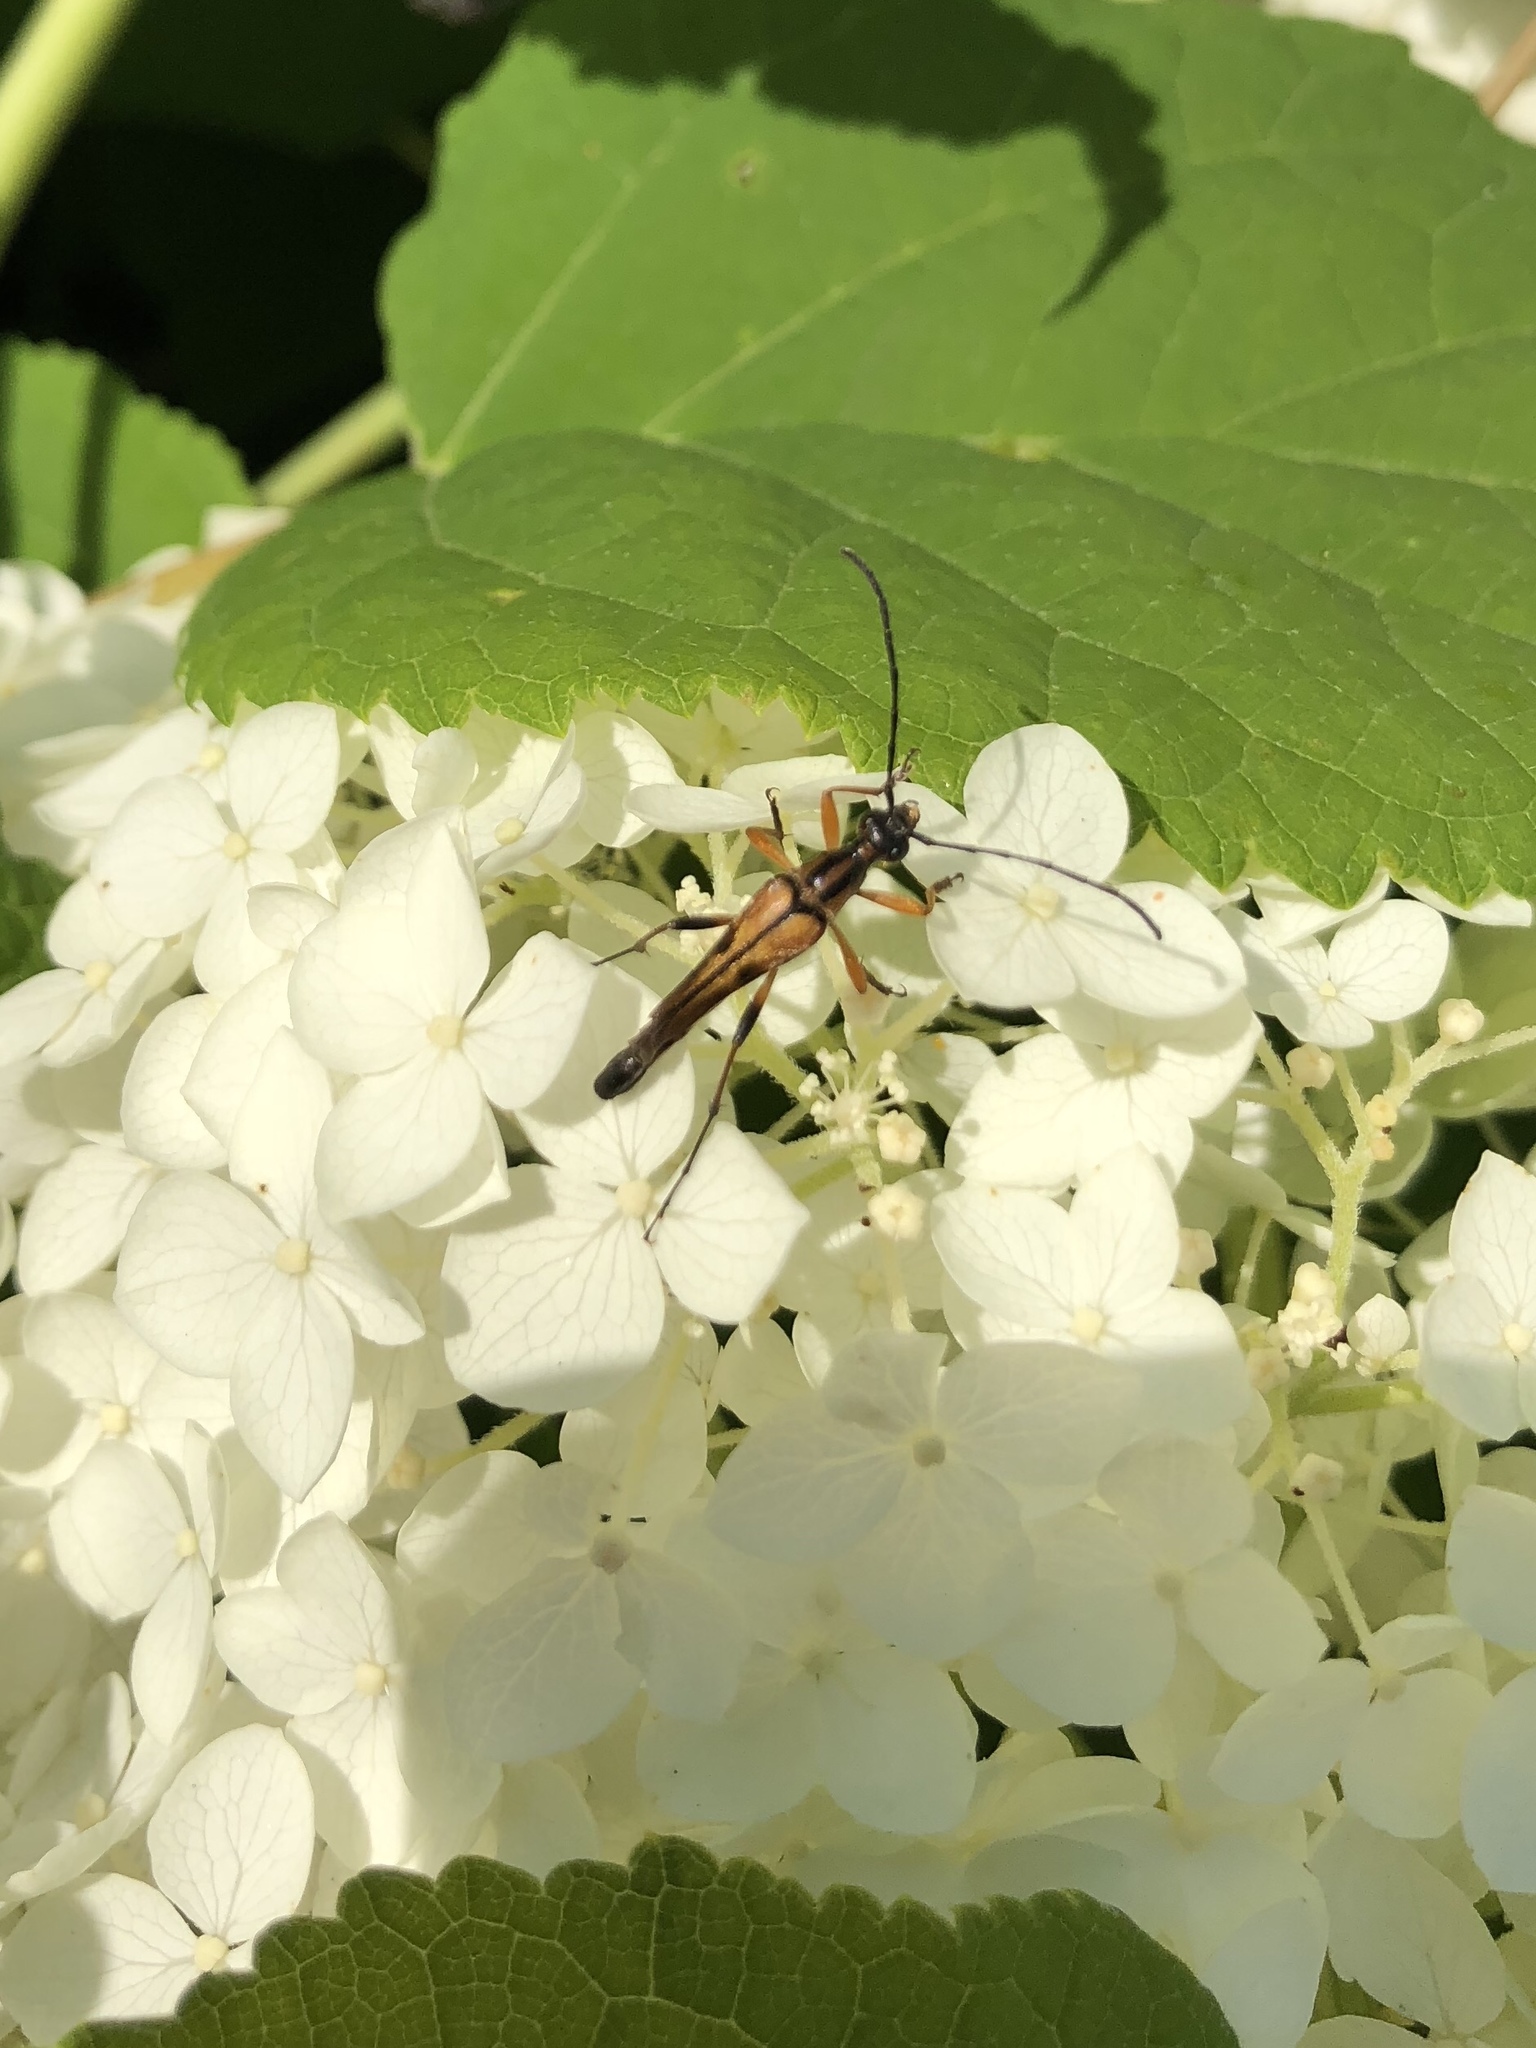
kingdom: Animalia
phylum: Arthropoda
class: Insecta
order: Coleoptera
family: Cerambycidae
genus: Strangalia
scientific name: Strangalia famelica
